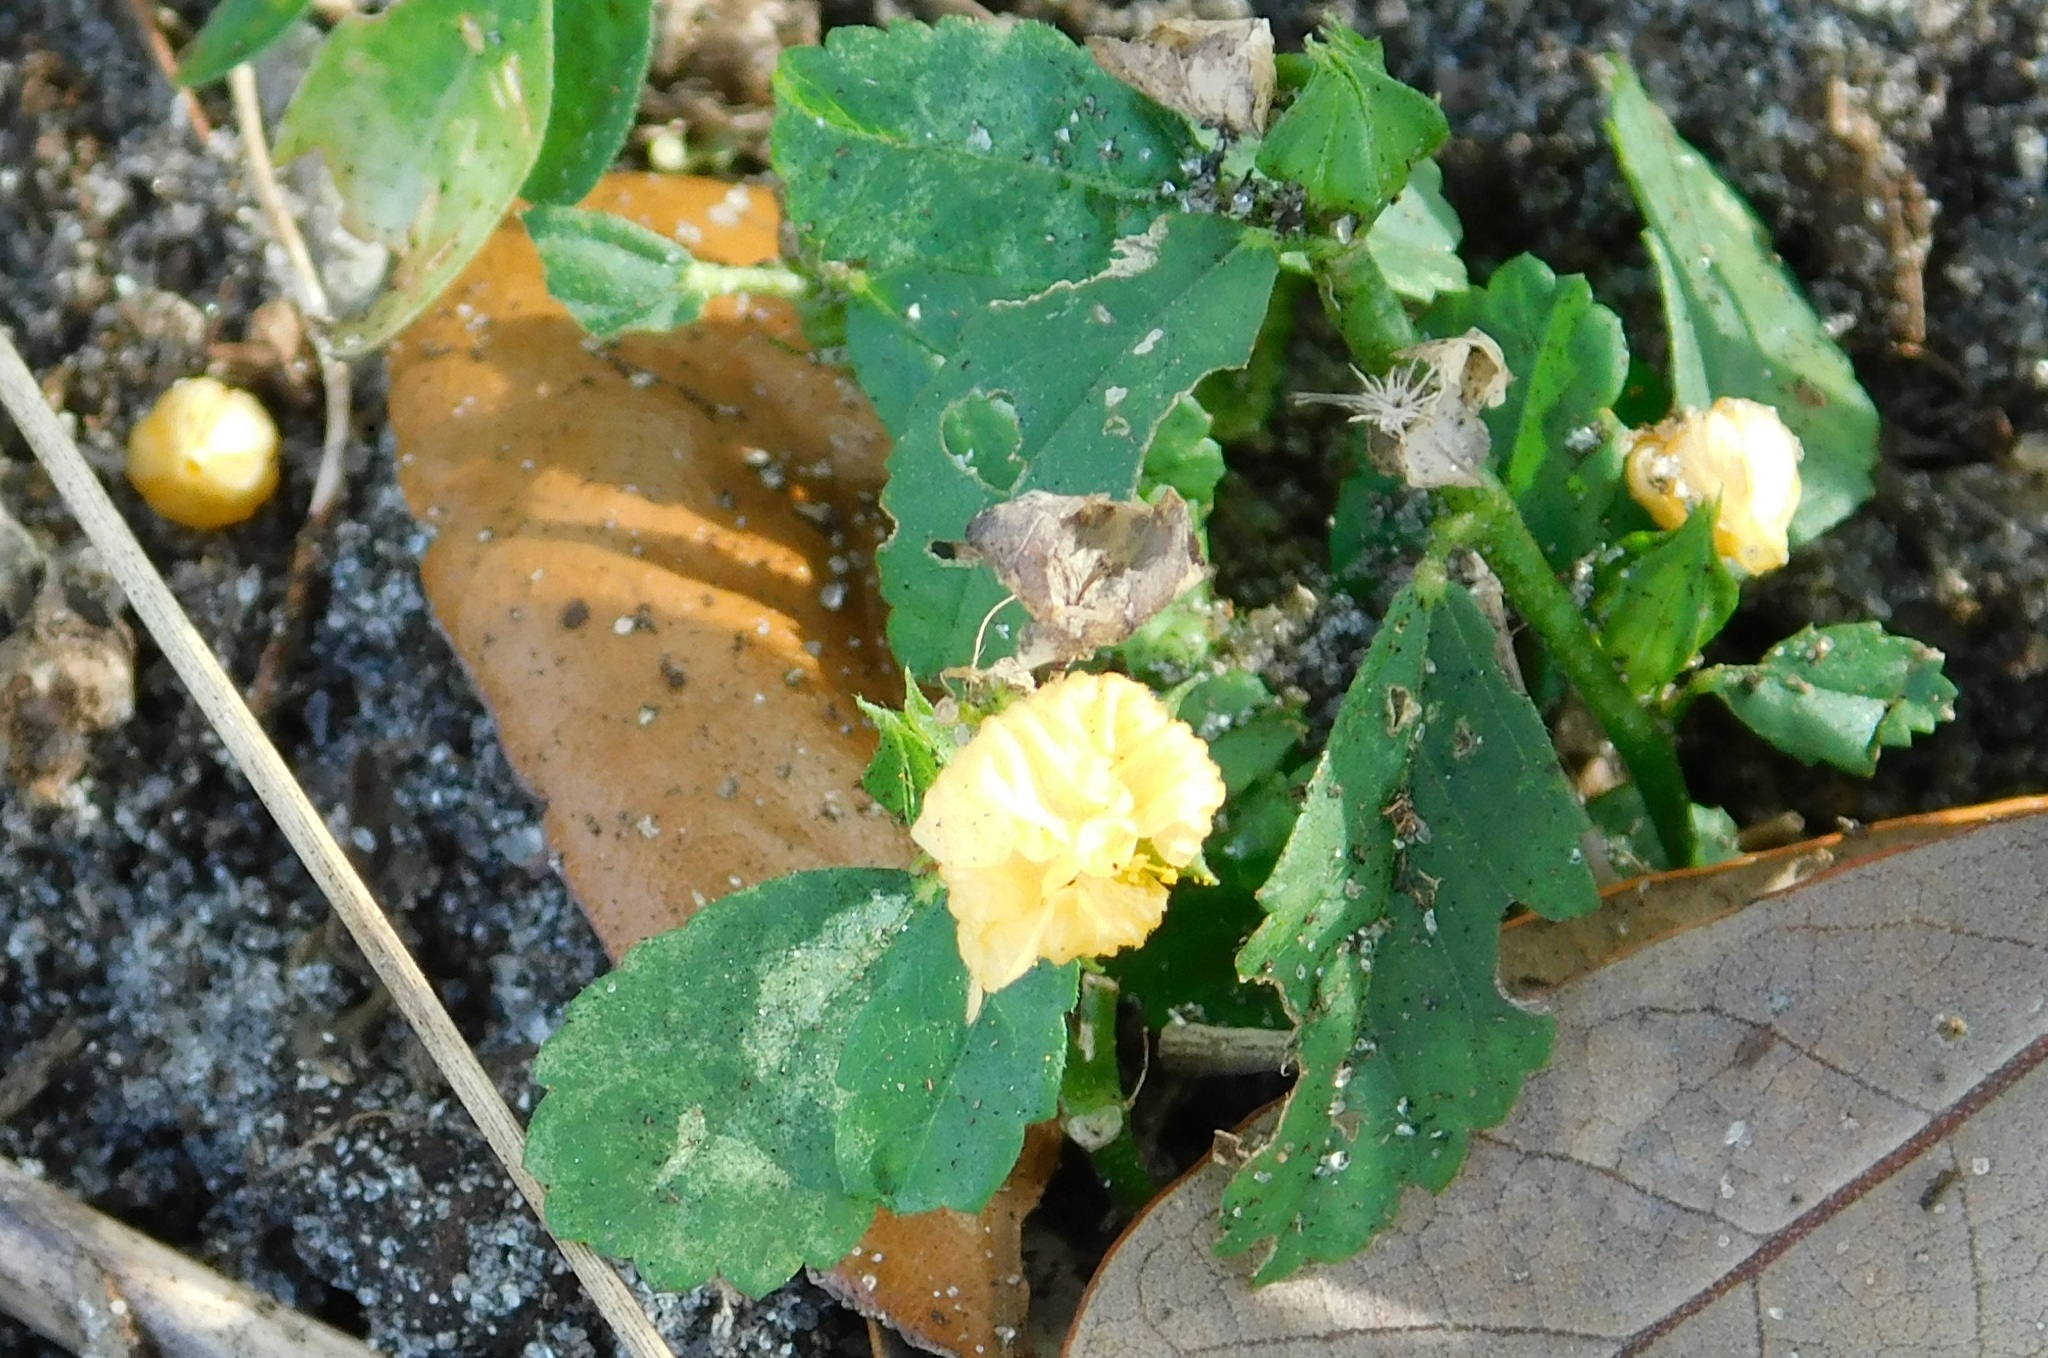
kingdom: Plantae
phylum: Tracheophyta
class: Magnoliopsida
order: Malvales
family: Malvaceae
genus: Sida
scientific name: Sida ulmifolia
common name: Broom weed
